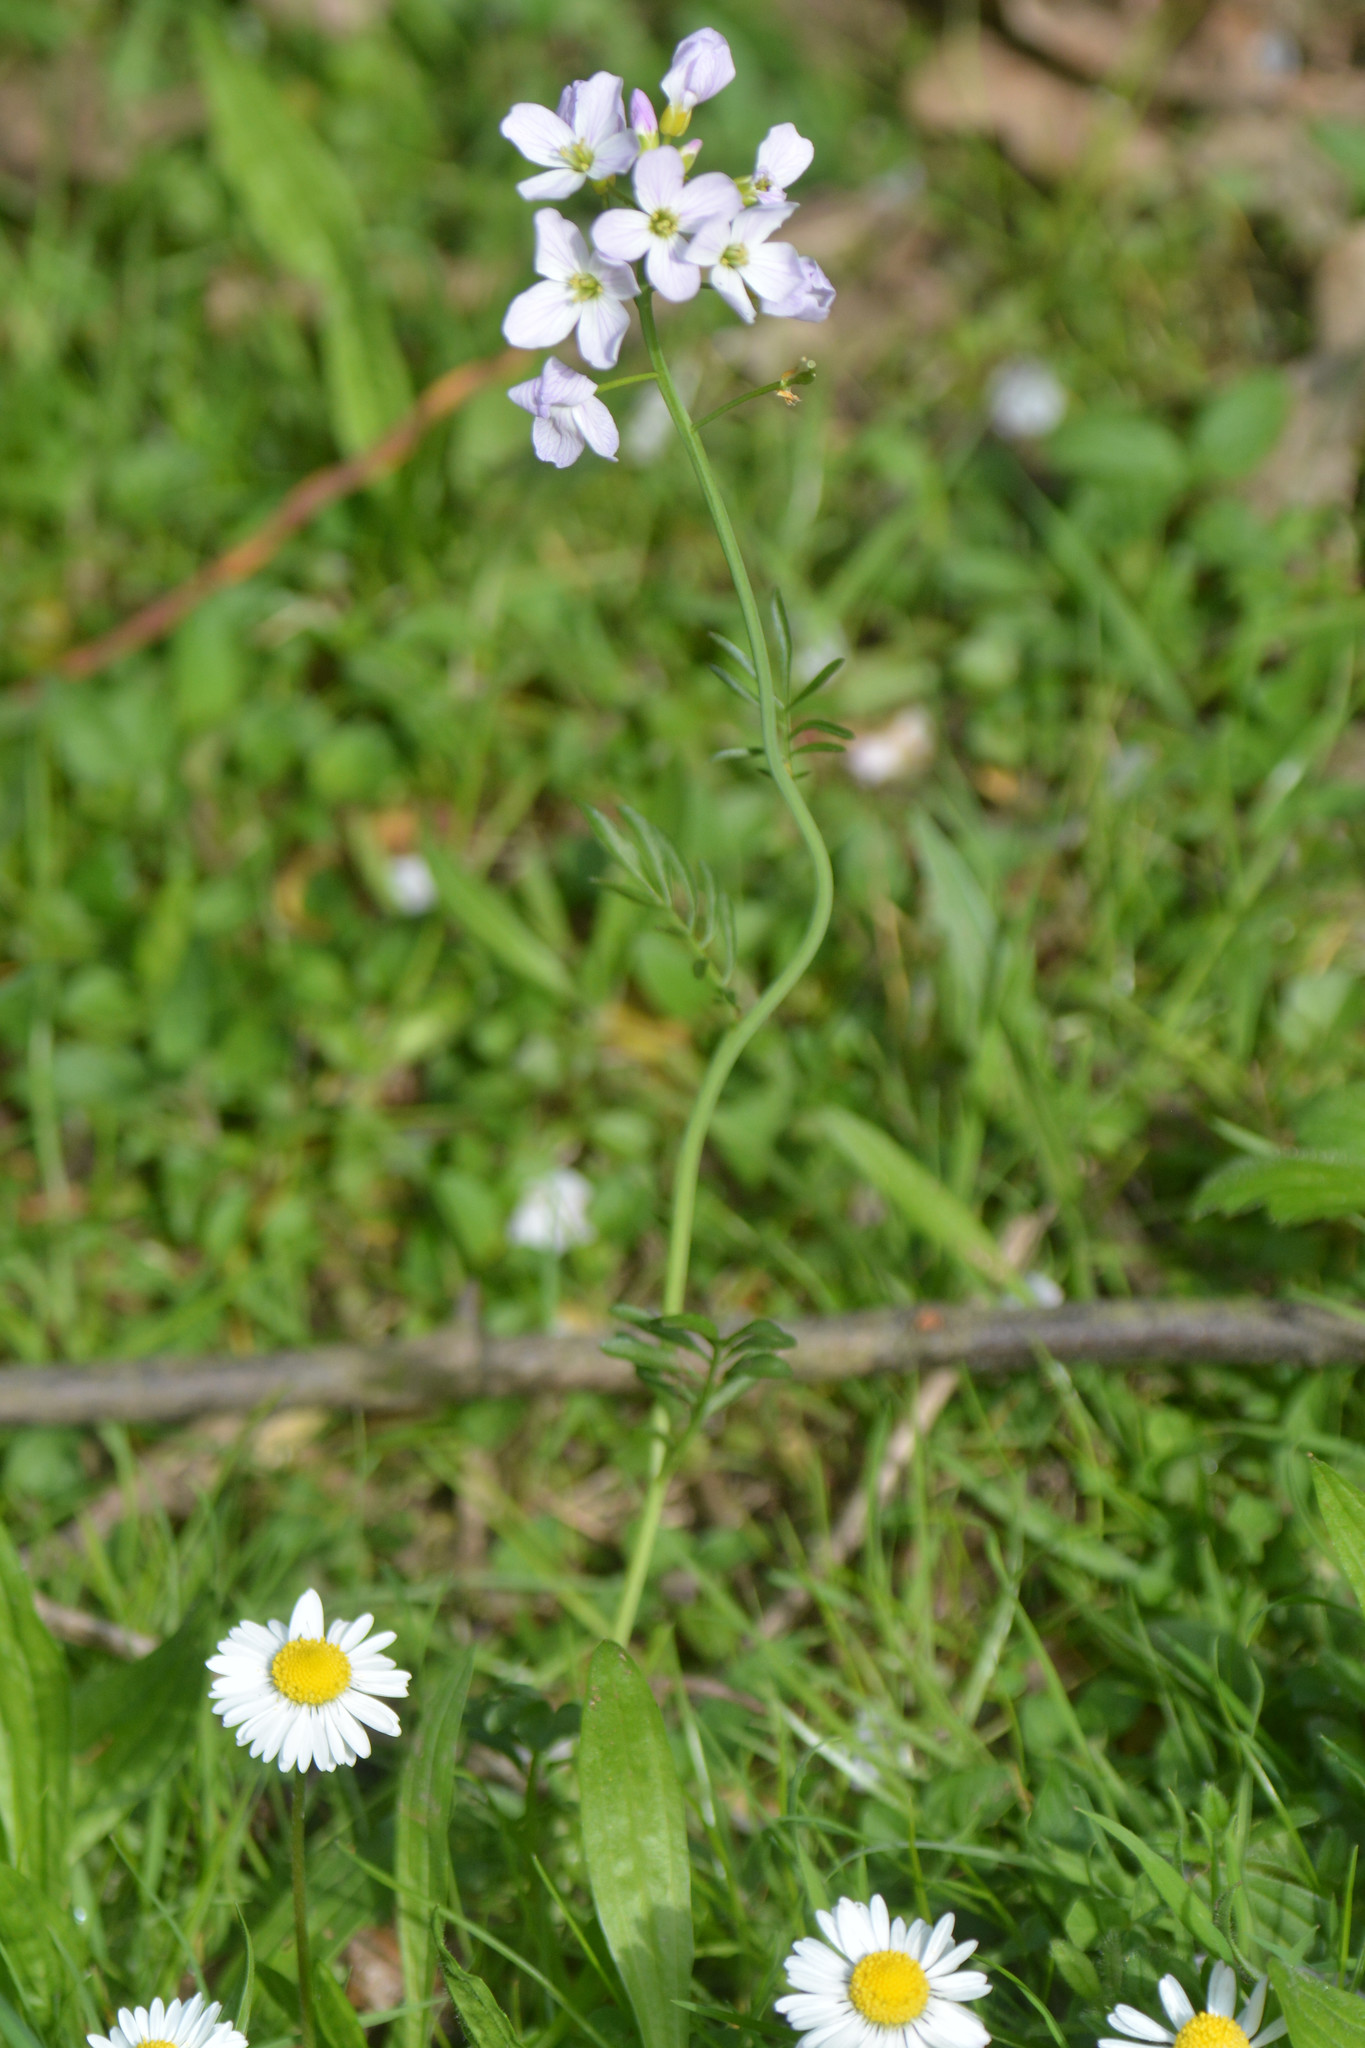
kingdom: Plantae
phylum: Tracheophyta
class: Magnoliopsida
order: Brassicales
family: Brassicaceae
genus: Cardamine
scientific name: Cardamine pratensis
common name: Cuckoo flower
